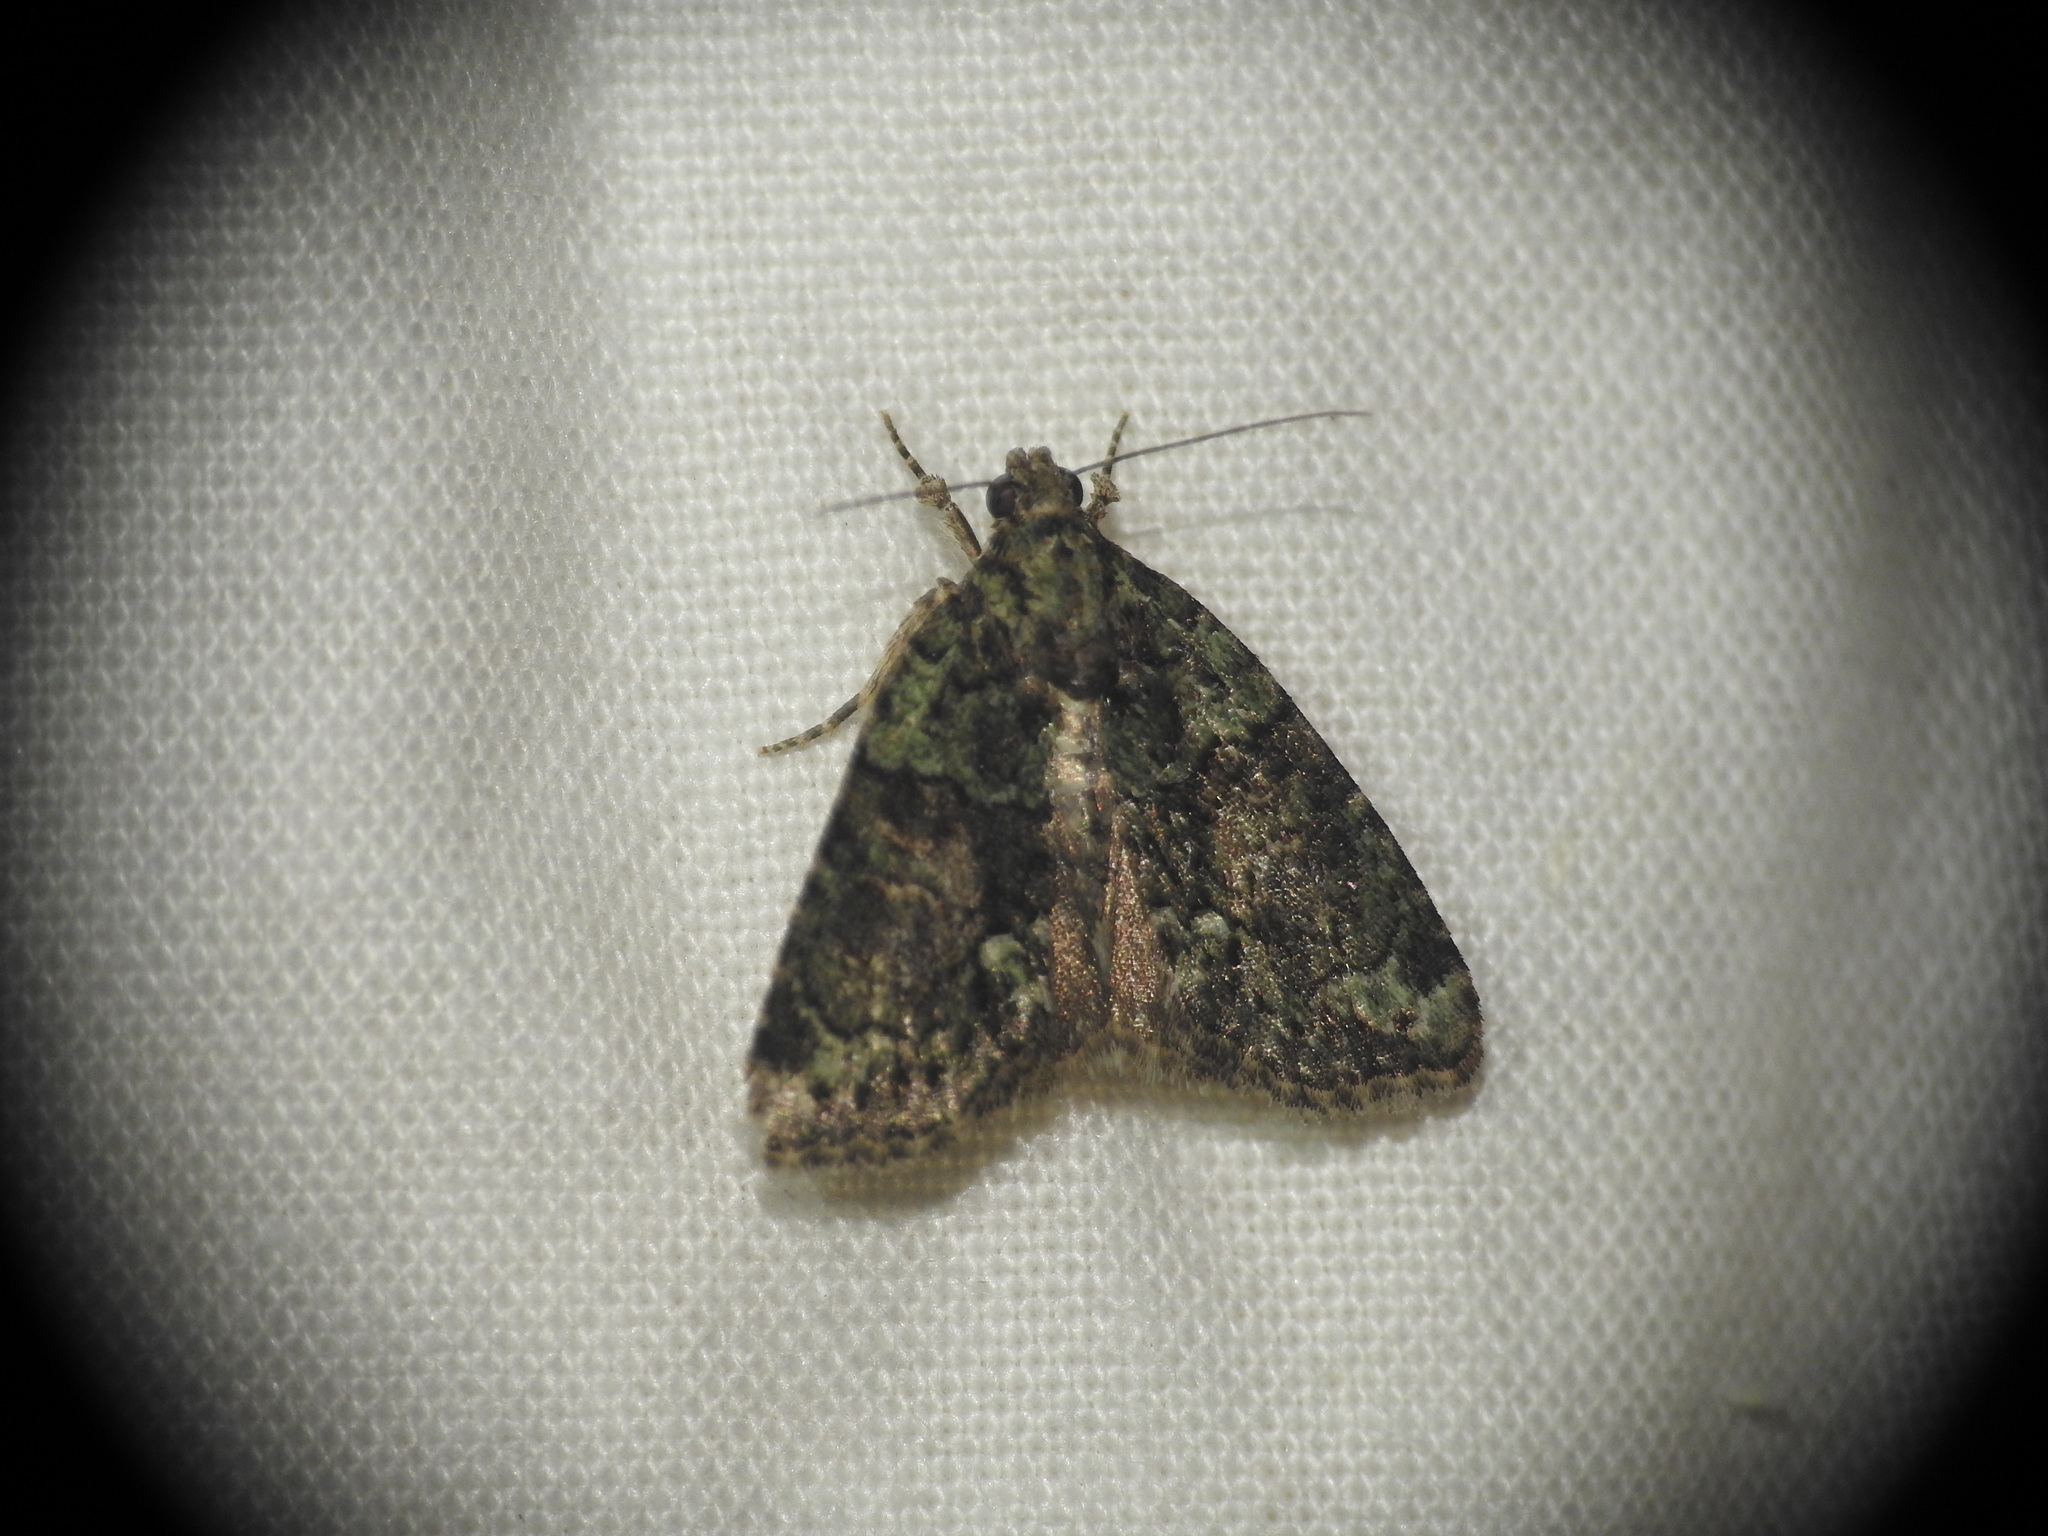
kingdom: Animalia
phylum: Arthropoda
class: Insecta
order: Lepidoptera
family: Noctuidae
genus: Cryphia
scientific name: Cryphia algae
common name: Tree-lichen beauty
